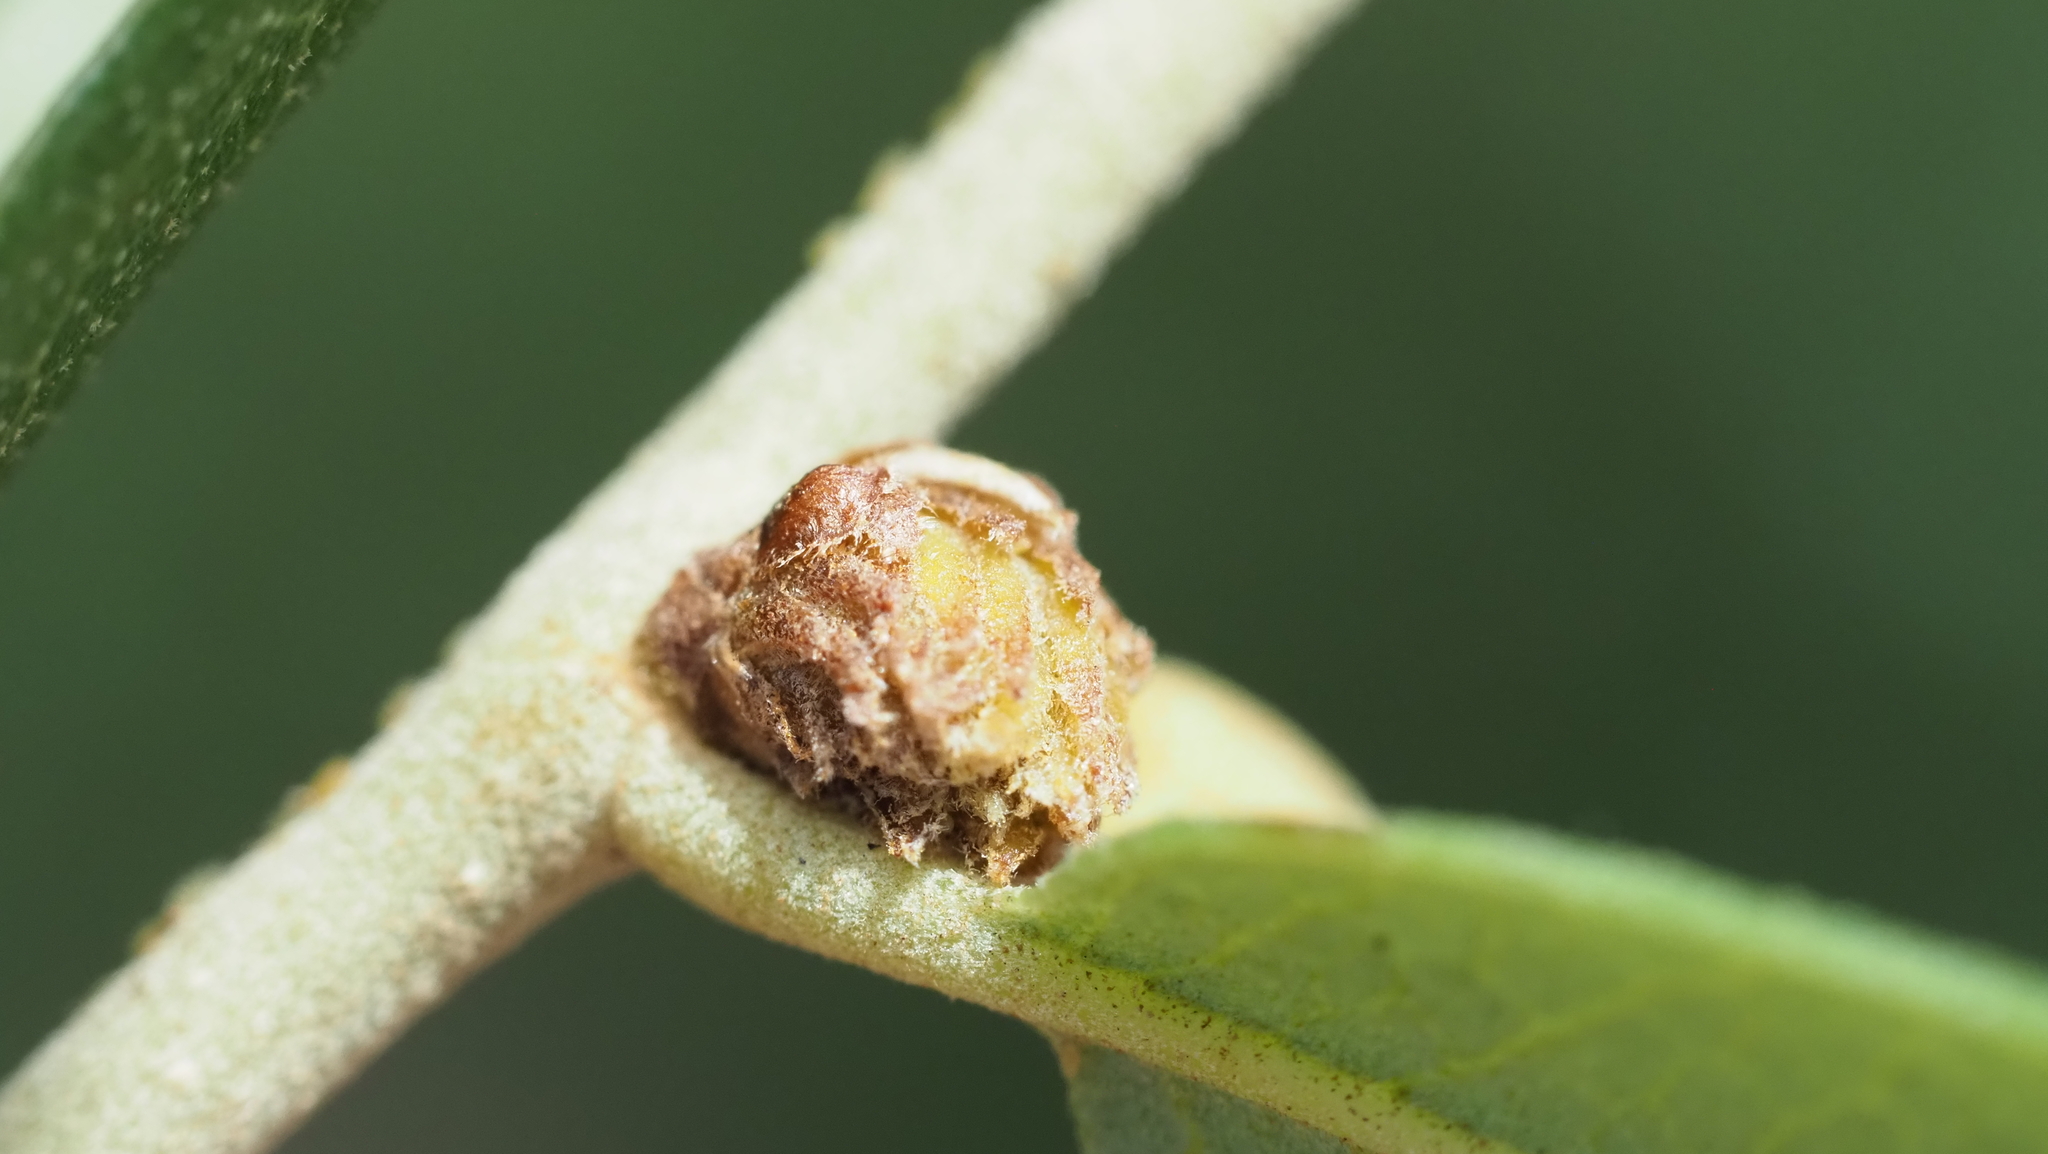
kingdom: Animalia
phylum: Arthropoda
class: Insecta
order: Hymenoptera
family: Cynipidae
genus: Andricus
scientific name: Andricus quercusfoliatus
